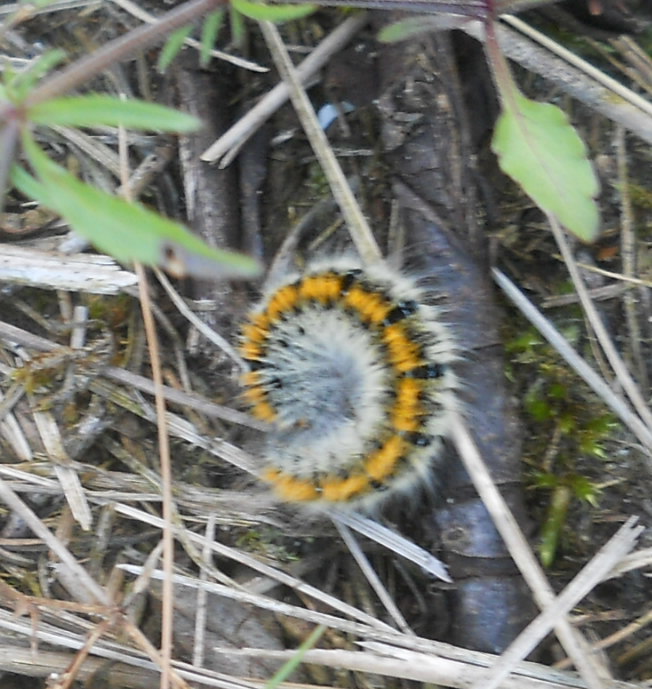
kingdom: Animalia
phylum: Arthropoda
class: Insecta
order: Lepidoptera
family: Lasiocampidae
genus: Lasiocampa
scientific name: Lasiocampa trifolii
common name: Grass eggar
